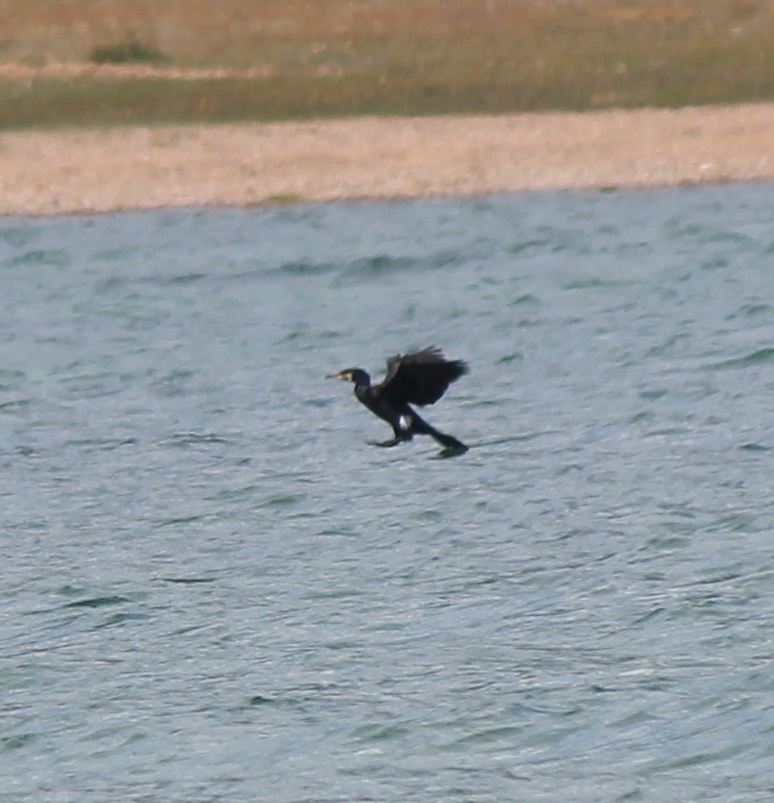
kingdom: Animalia
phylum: Chordata
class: Aves
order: Suliformes
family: Phalacrocoracidae
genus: Phalacrocorax
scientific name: Phalacrocorax carbo
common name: Great cormorant
